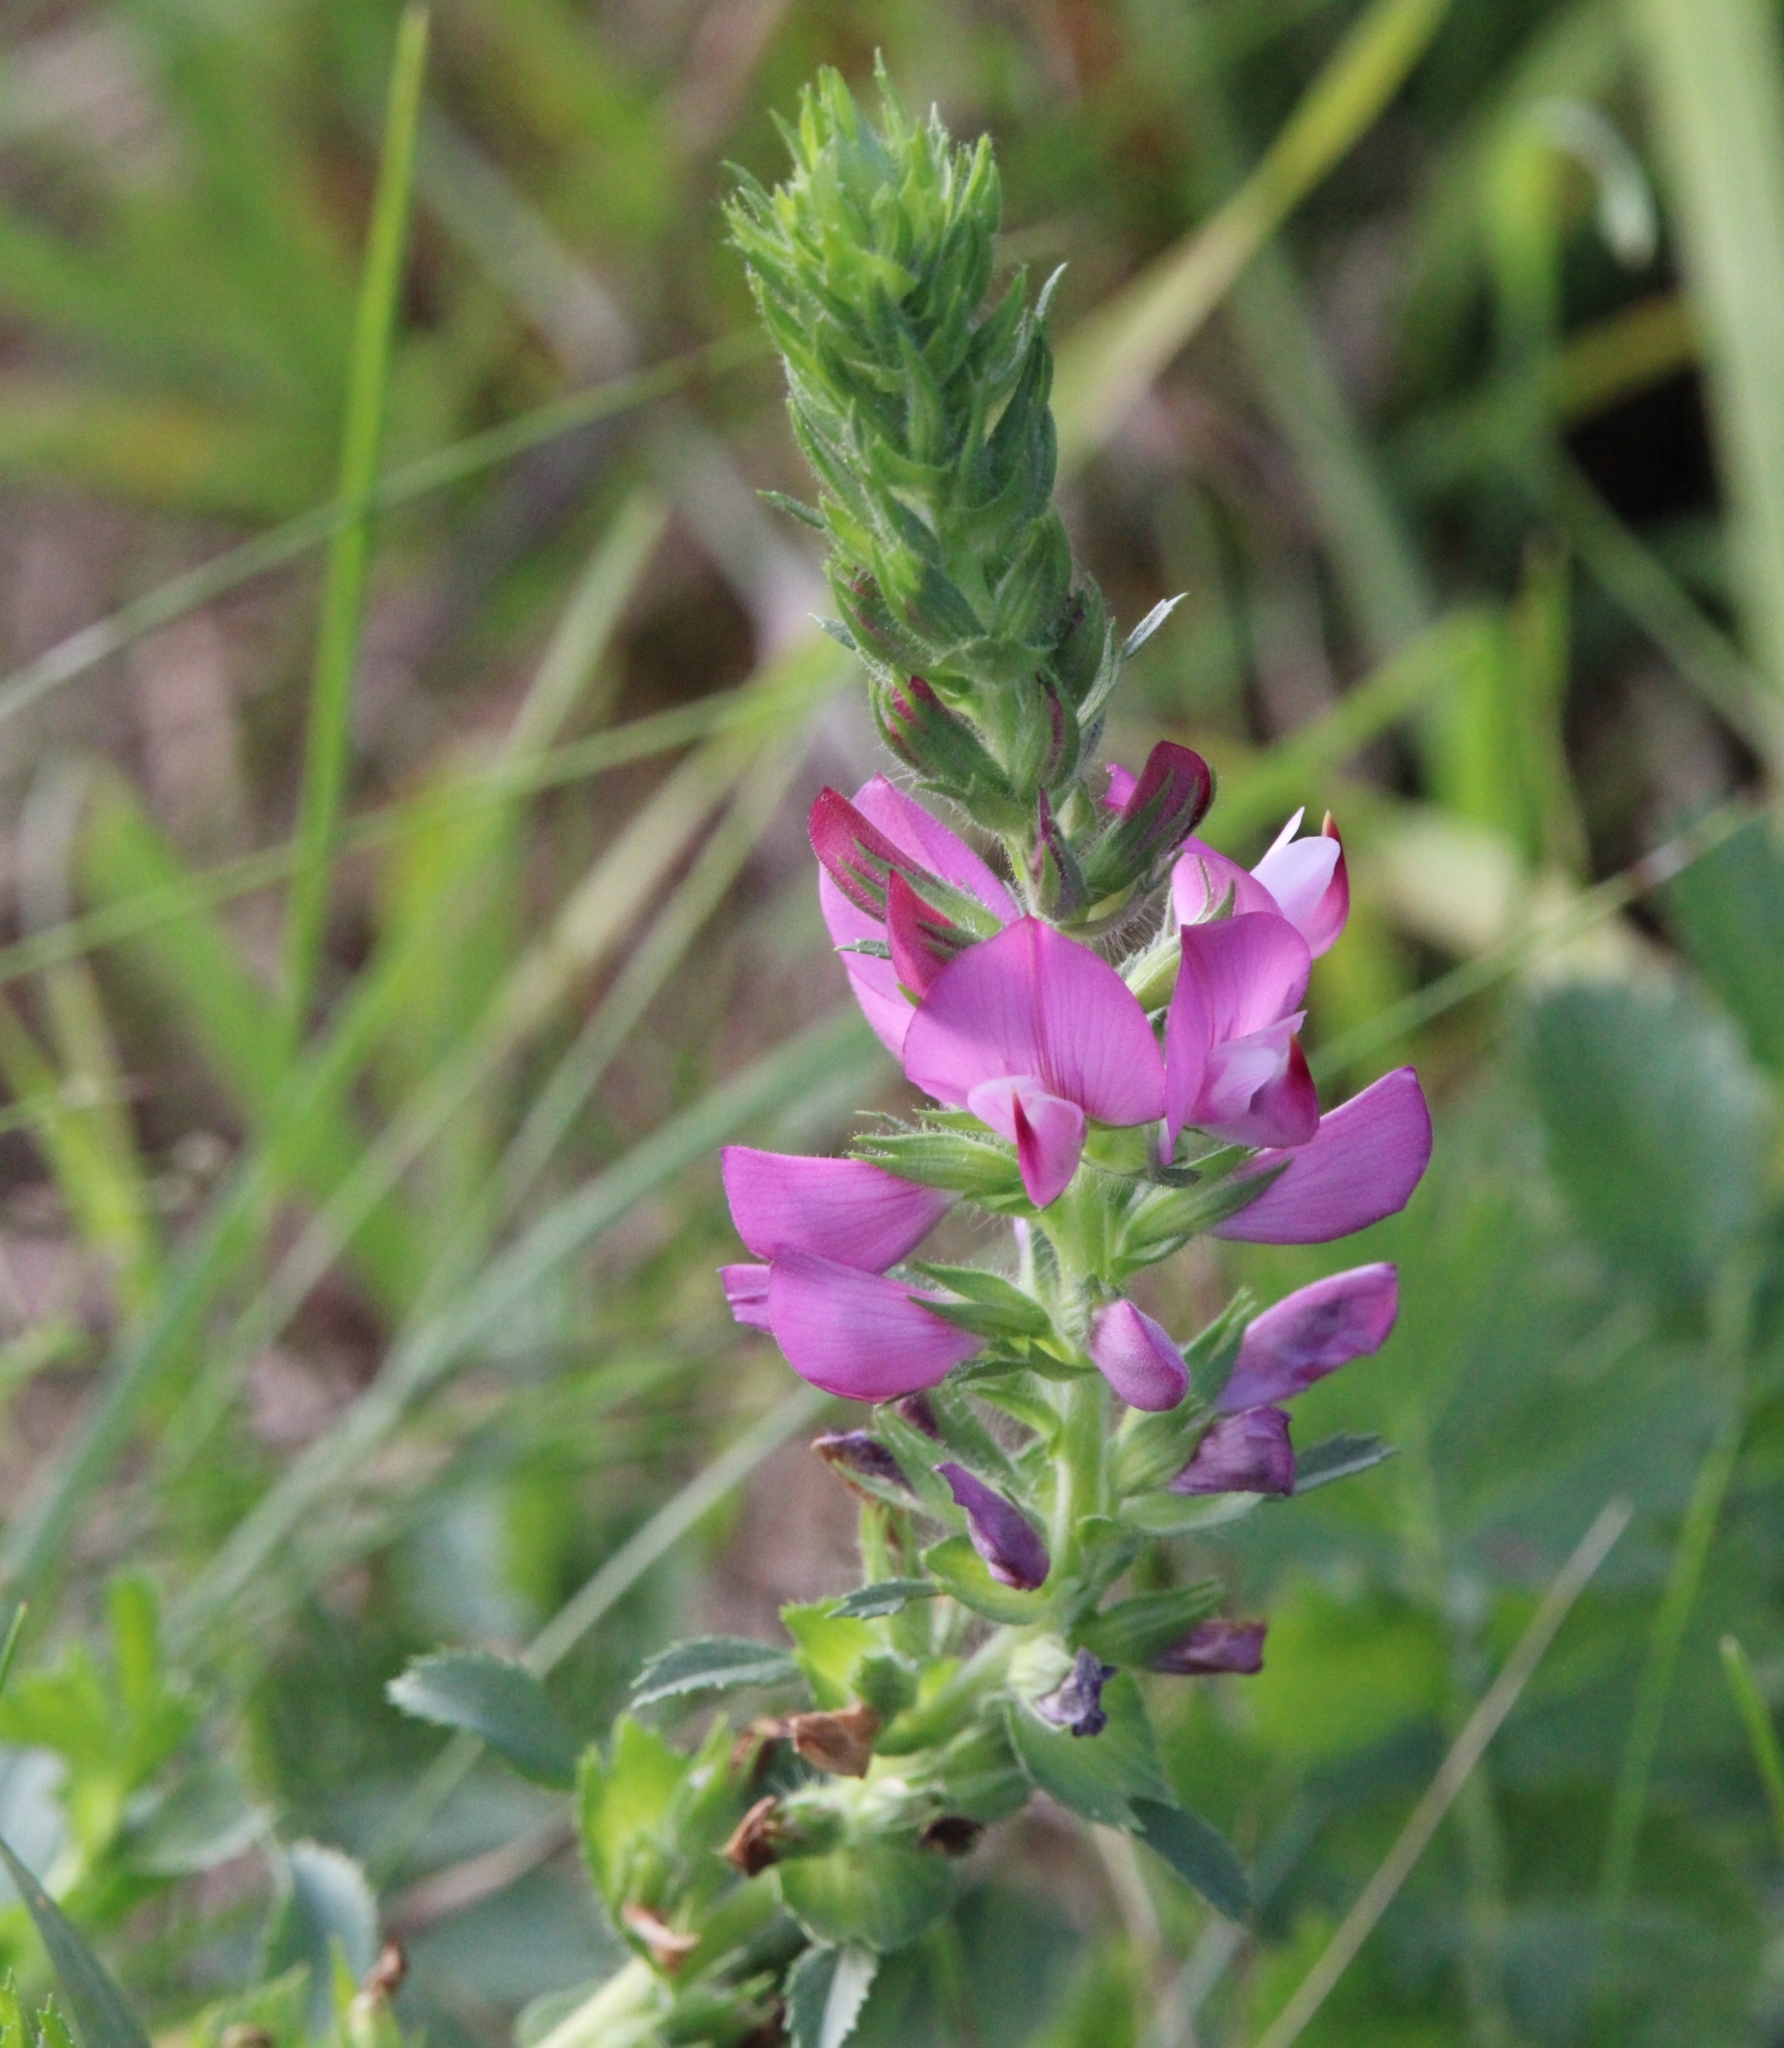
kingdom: Plantae
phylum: Tracheophyta
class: Magnoliopsida
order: Fabales
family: Fabaceae
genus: Ononis
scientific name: Ononis arvensis
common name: Field restharrow
